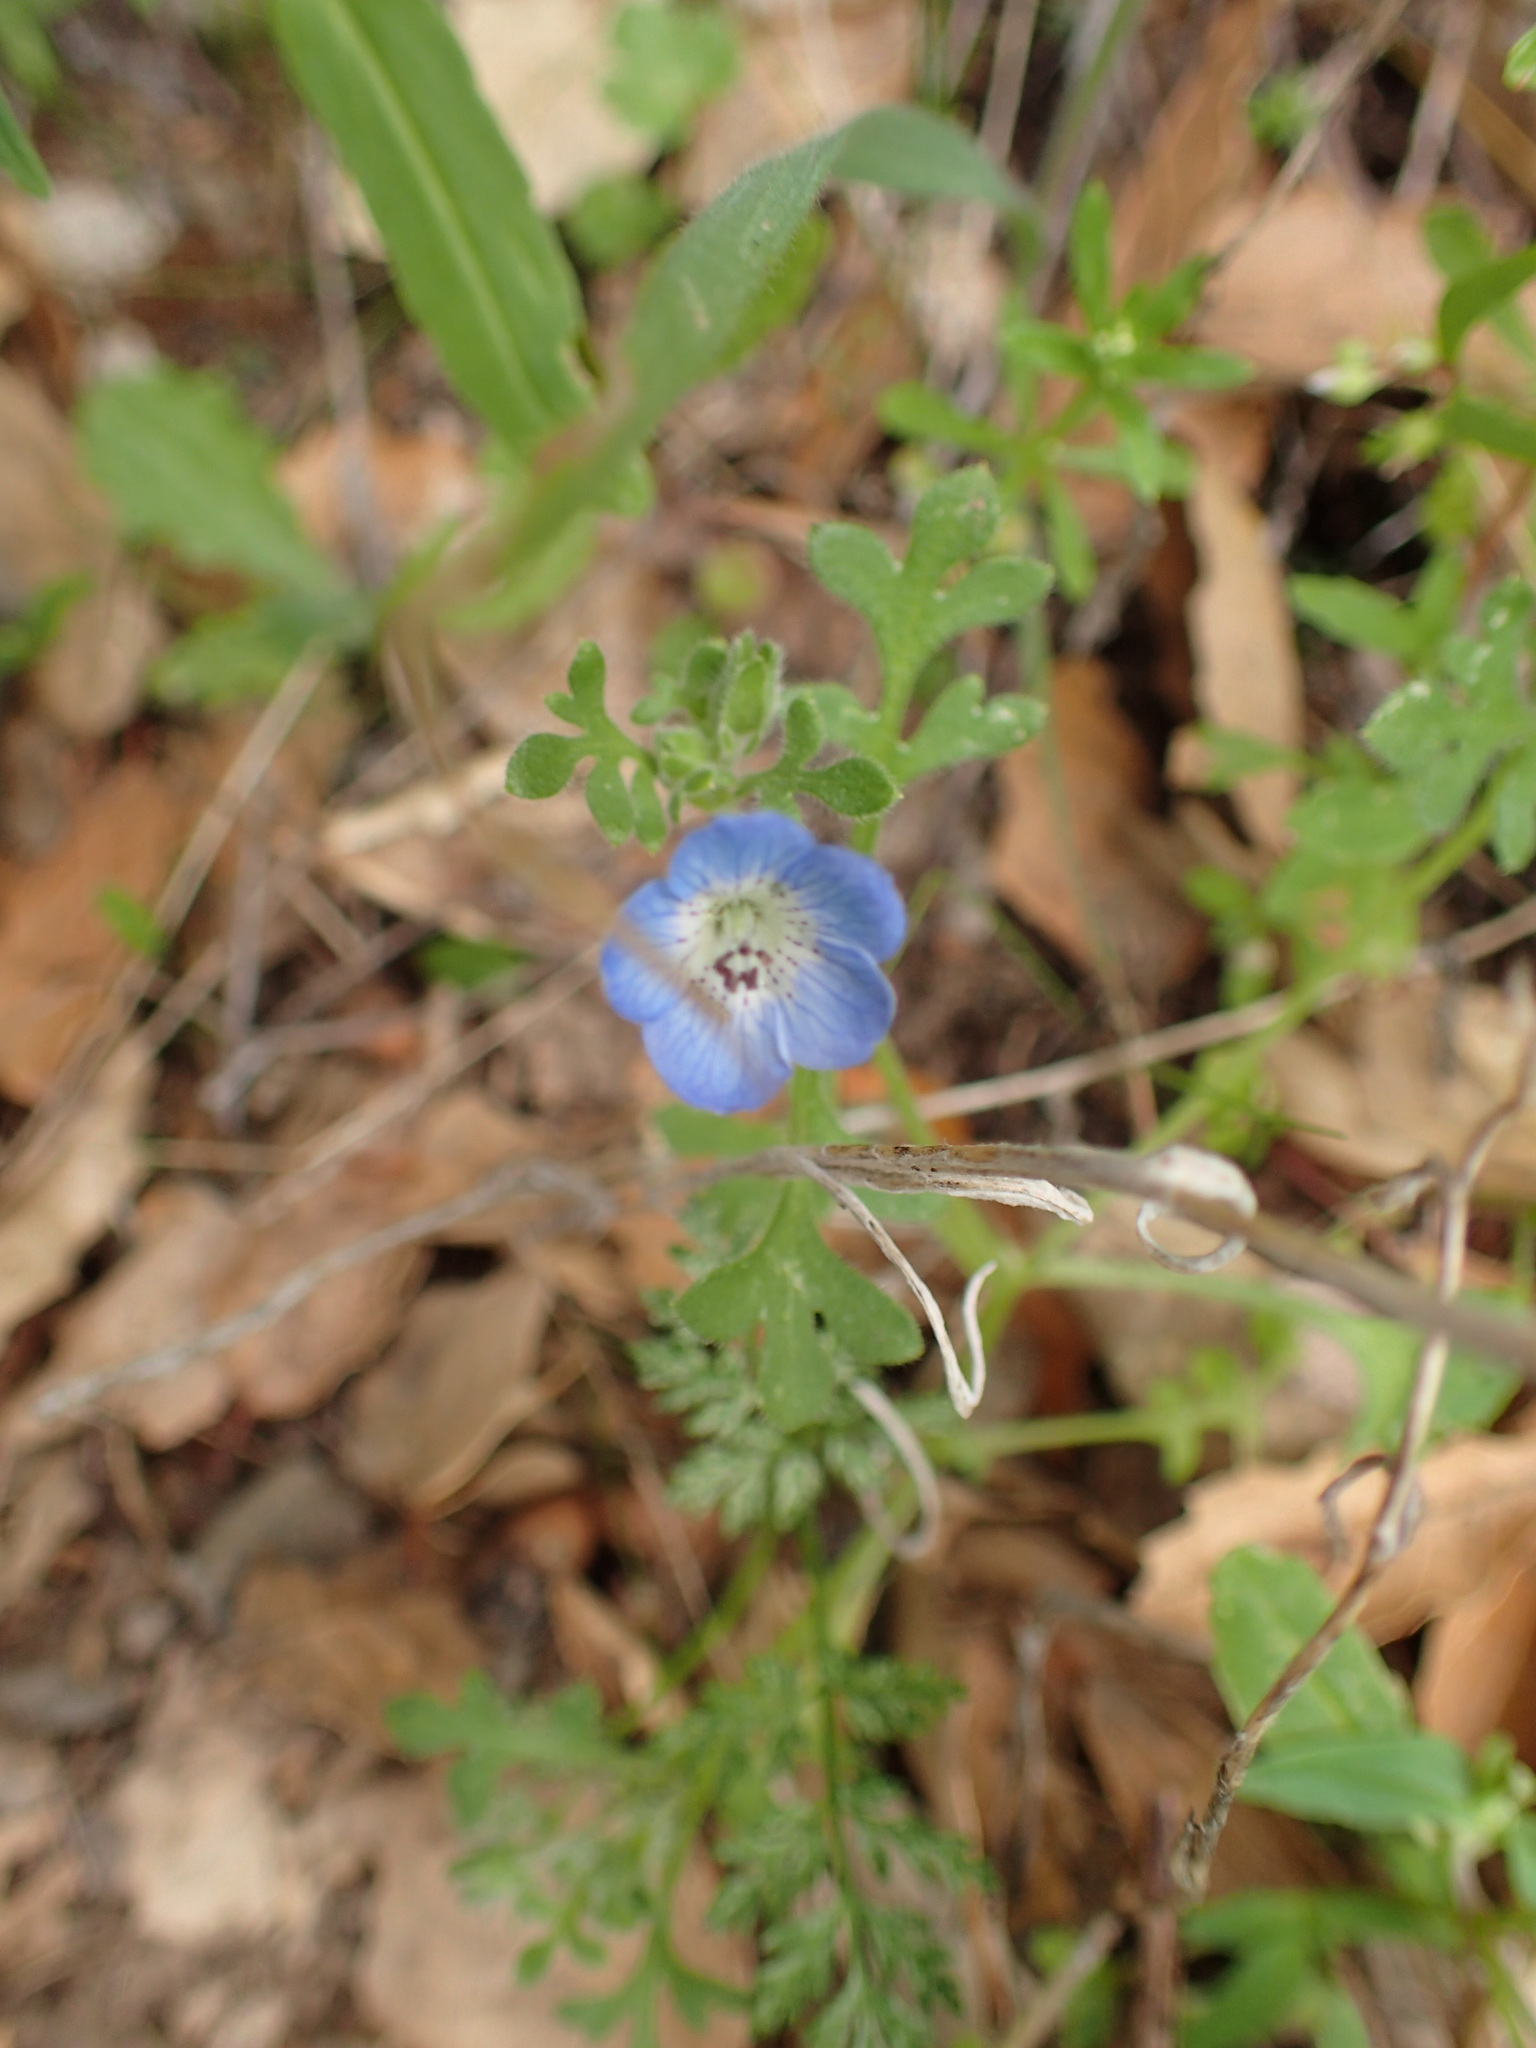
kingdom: Plantae
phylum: Tracheophyta
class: Magnoliopsida
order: Boraginales
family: Hydrophyllaceae
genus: Nemophila
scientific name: Nemophila menziesii
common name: Baby's-blue-eyes
